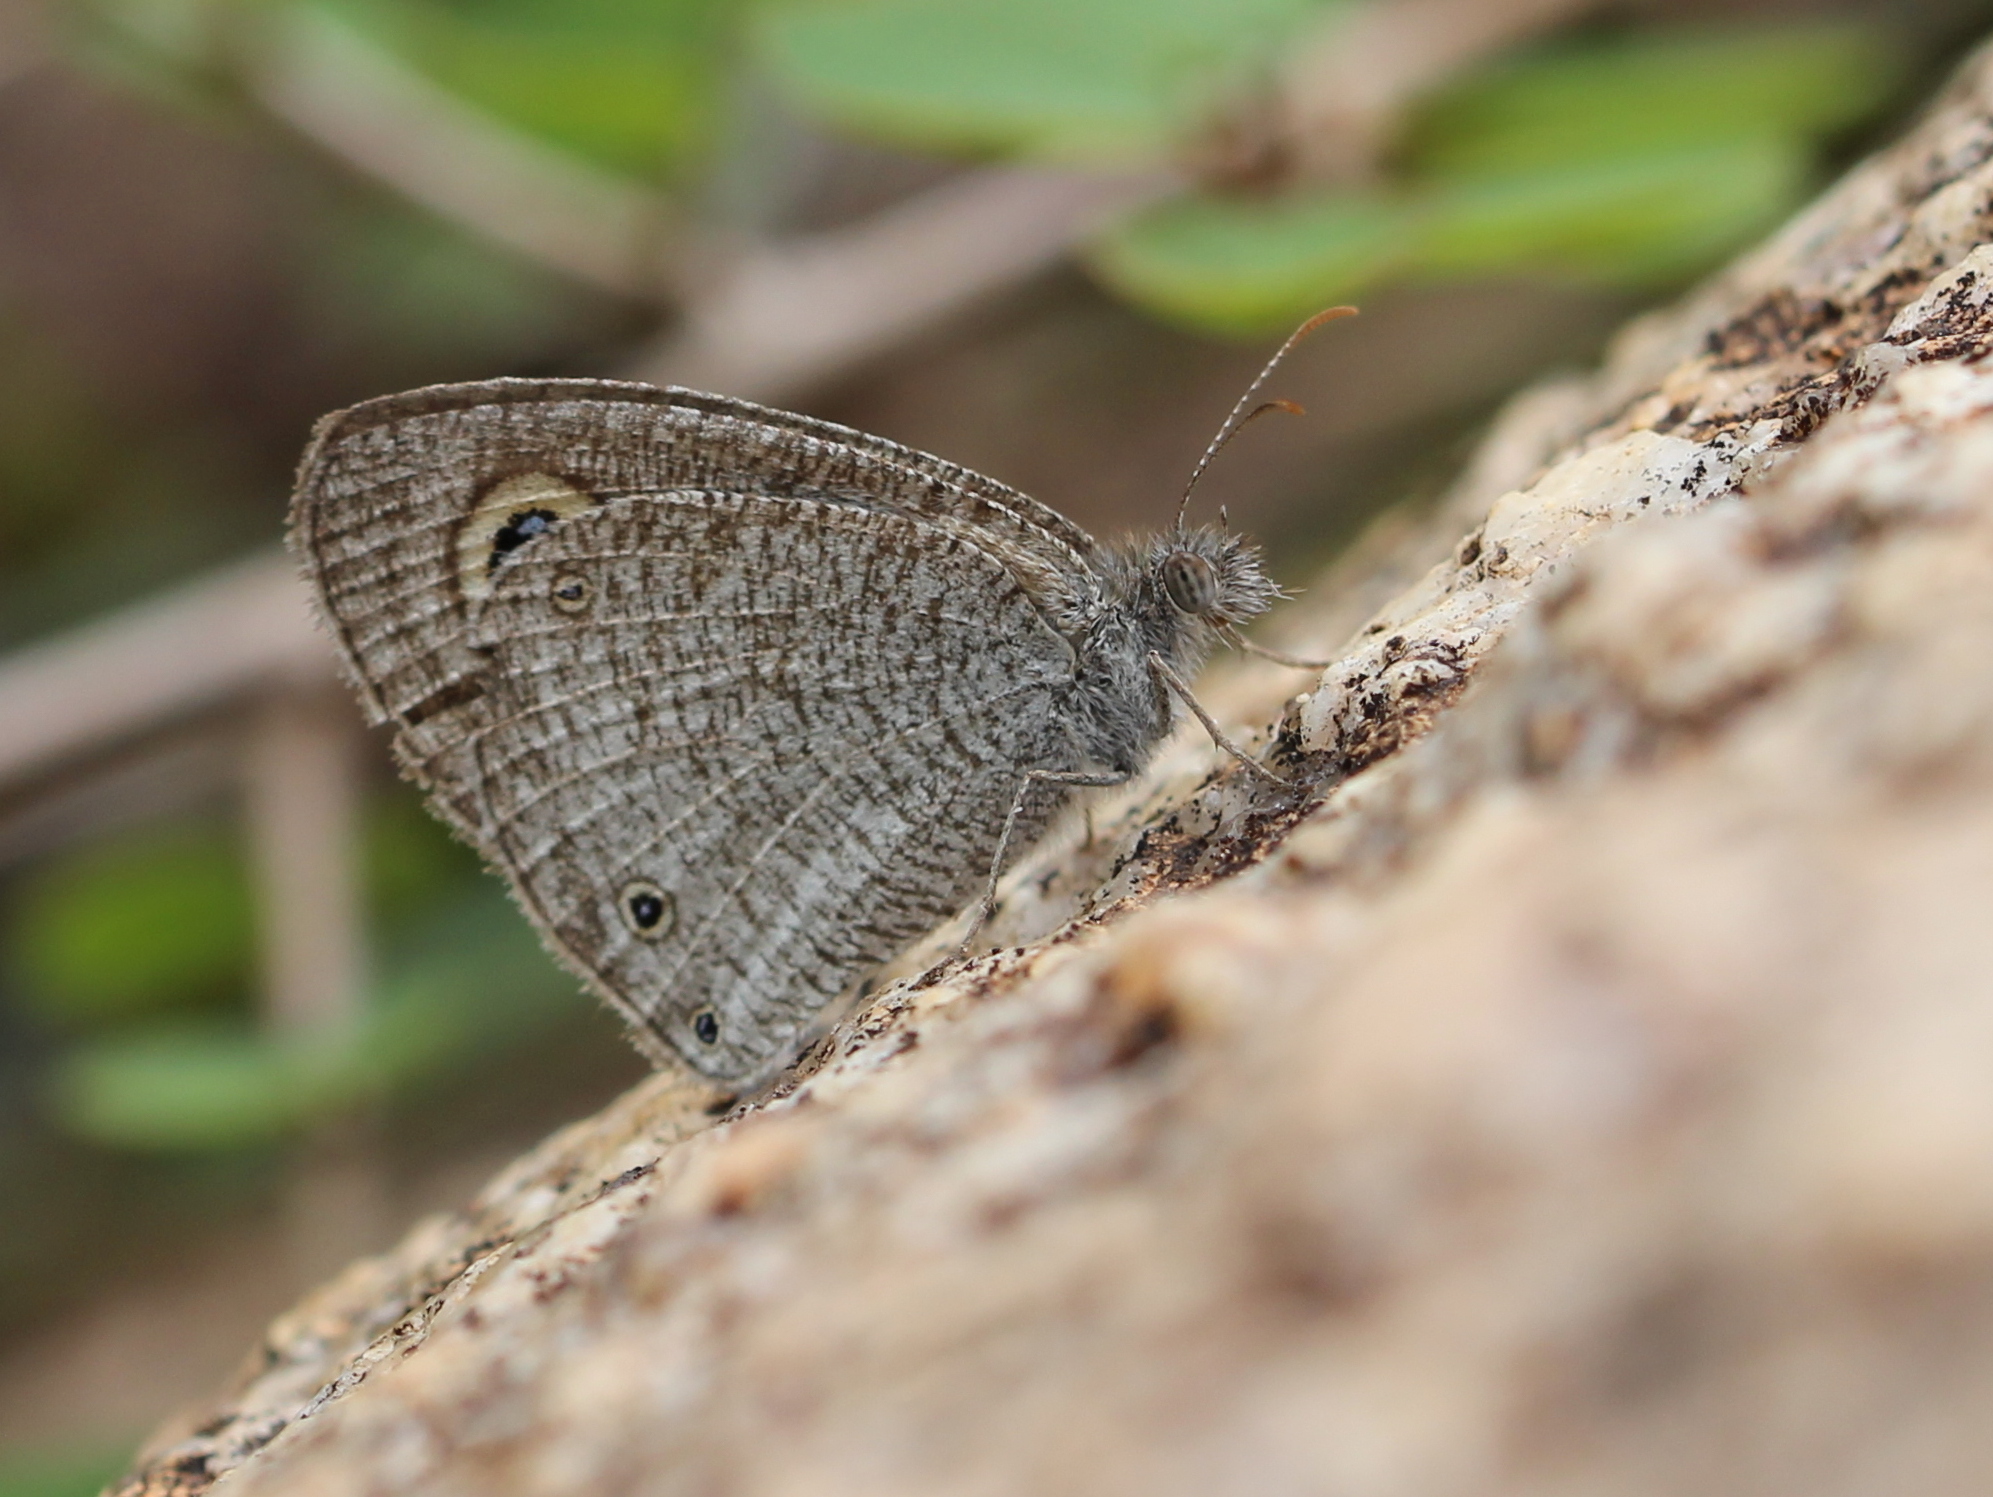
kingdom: Animalia
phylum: Arthropoda
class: Insecta
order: Lepidoptera
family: Nymphalidae
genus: Ypthima
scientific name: Ypthima asterope
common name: African ringlet
